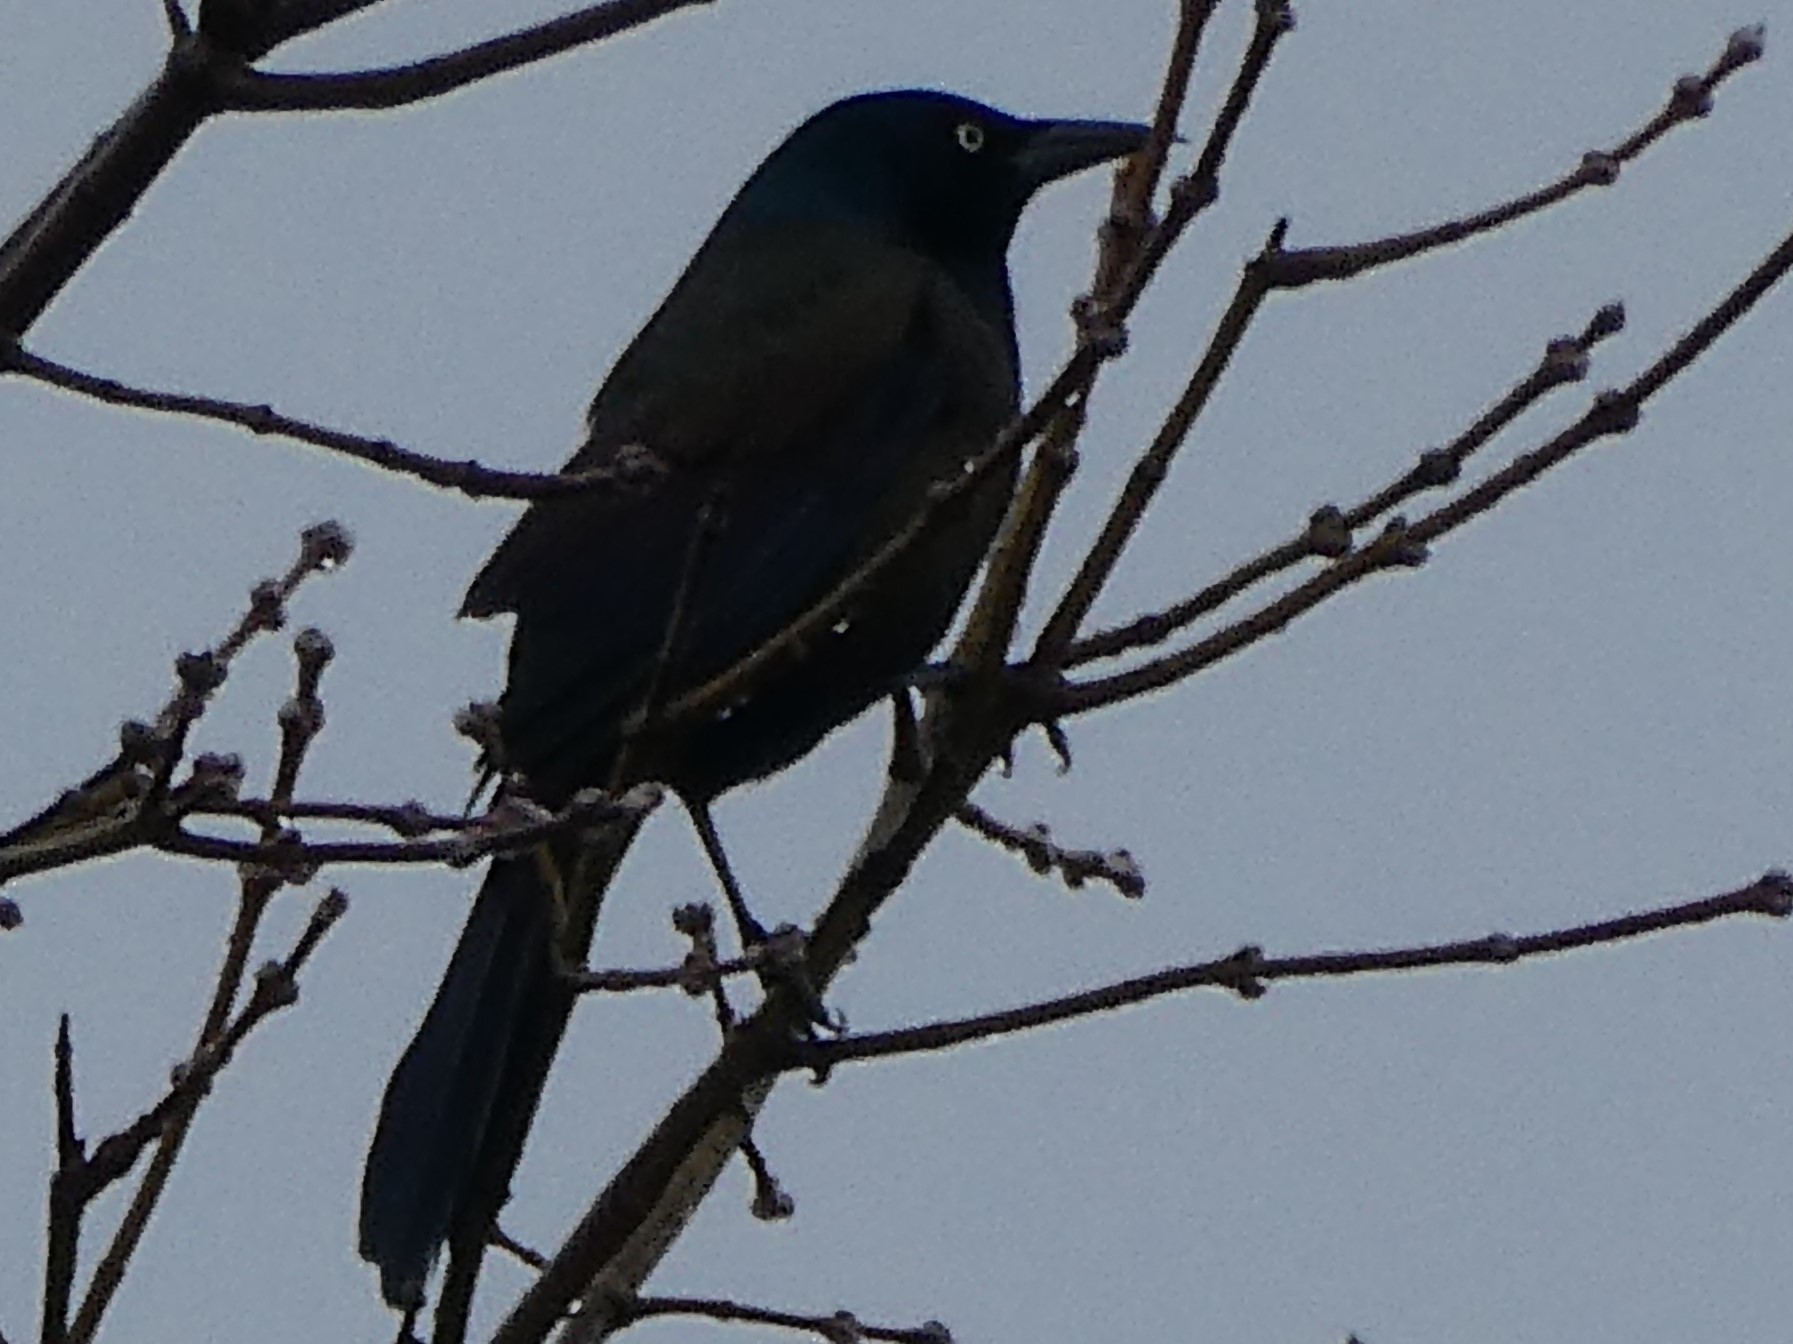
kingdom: Animalia
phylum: Chordata
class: Aves
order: Passeriformes
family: Icteridae
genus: Quiscalus
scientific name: Quiscalus quiscula
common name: Common grackle
